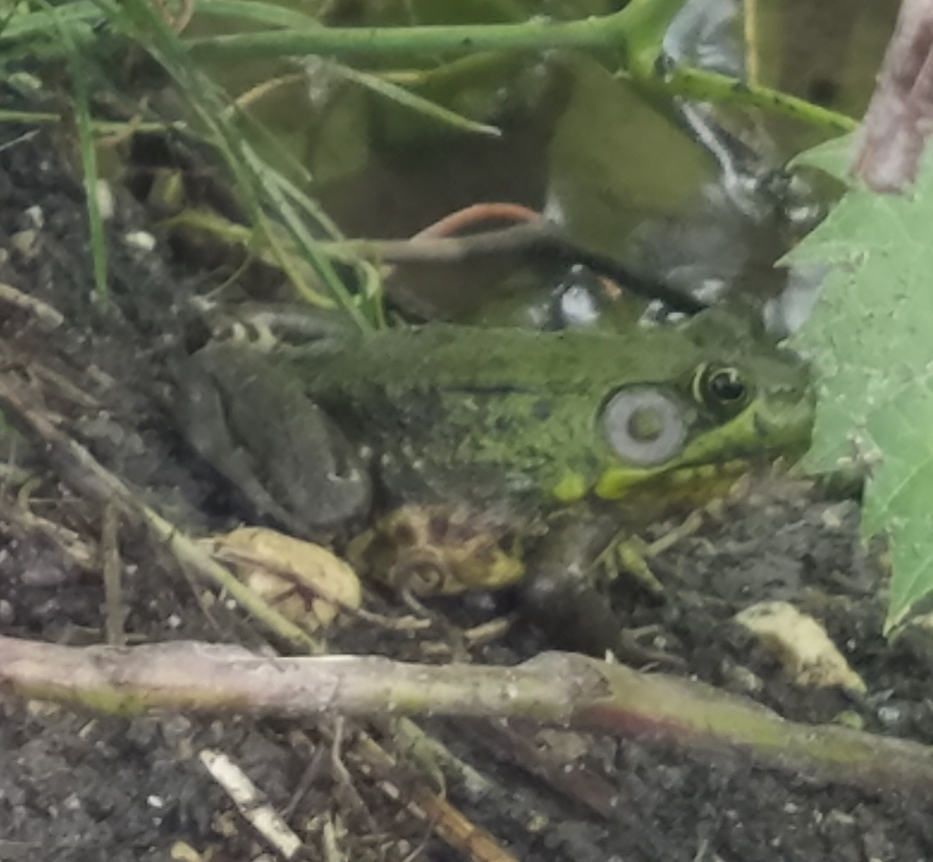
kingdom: Animalia
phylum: Chordata
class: Amphibia
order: Anura
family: Ranidae
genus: Lithobates
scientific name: Lithobates clamitans
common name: Green frog
